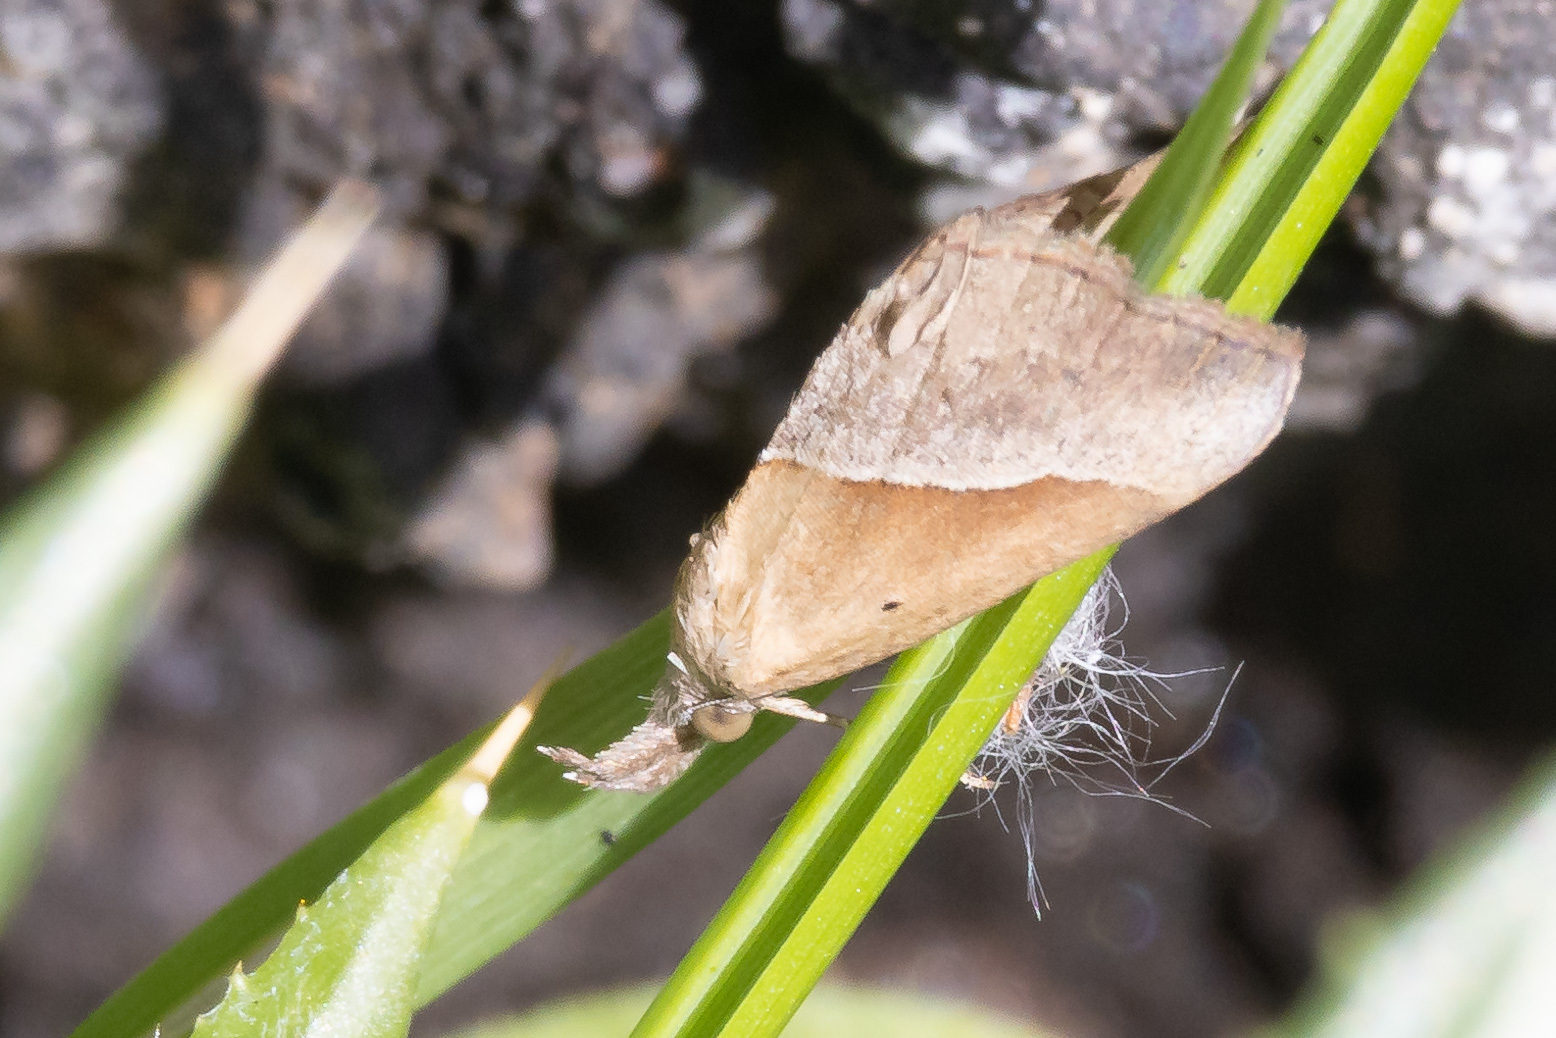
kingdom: Animalia
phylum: Arthropoda
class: Insecta
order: Lepidoptera
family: Erebidae
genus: Hypena
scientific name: Hypena lividalis
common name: Chevron snout
